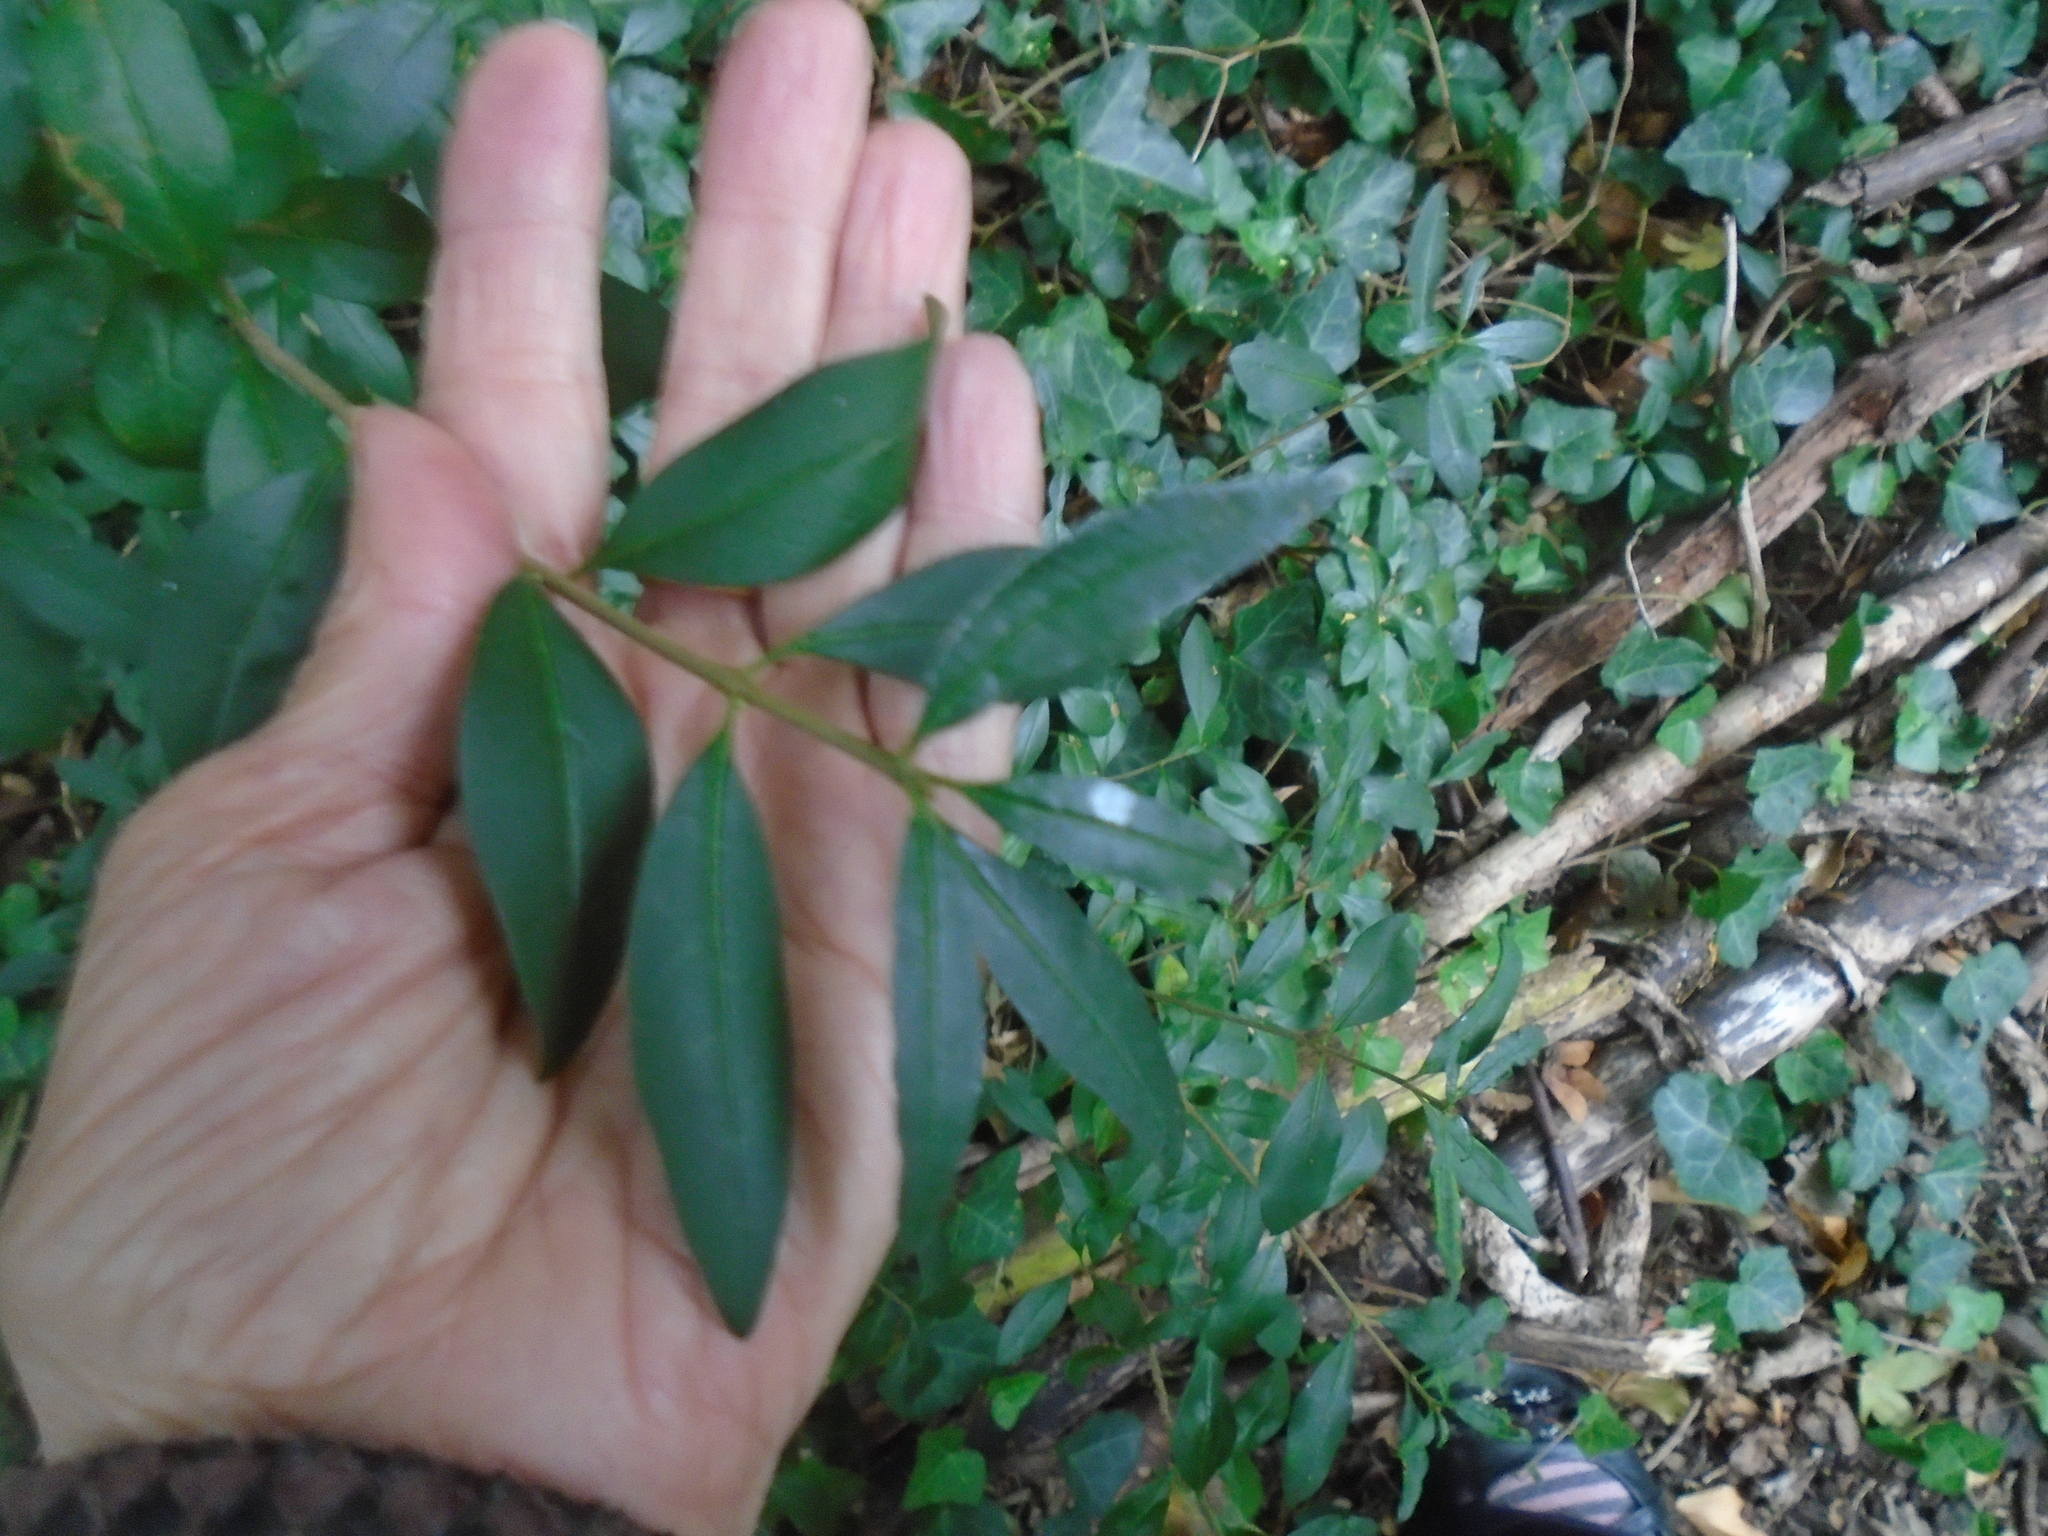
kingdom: Plantae
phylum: Tracheophyta
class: Magnoliopsida
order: Lamiales
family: Oleaceae
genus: Ligustrum
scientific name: Ligustrum vulgare
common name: Wild privet
